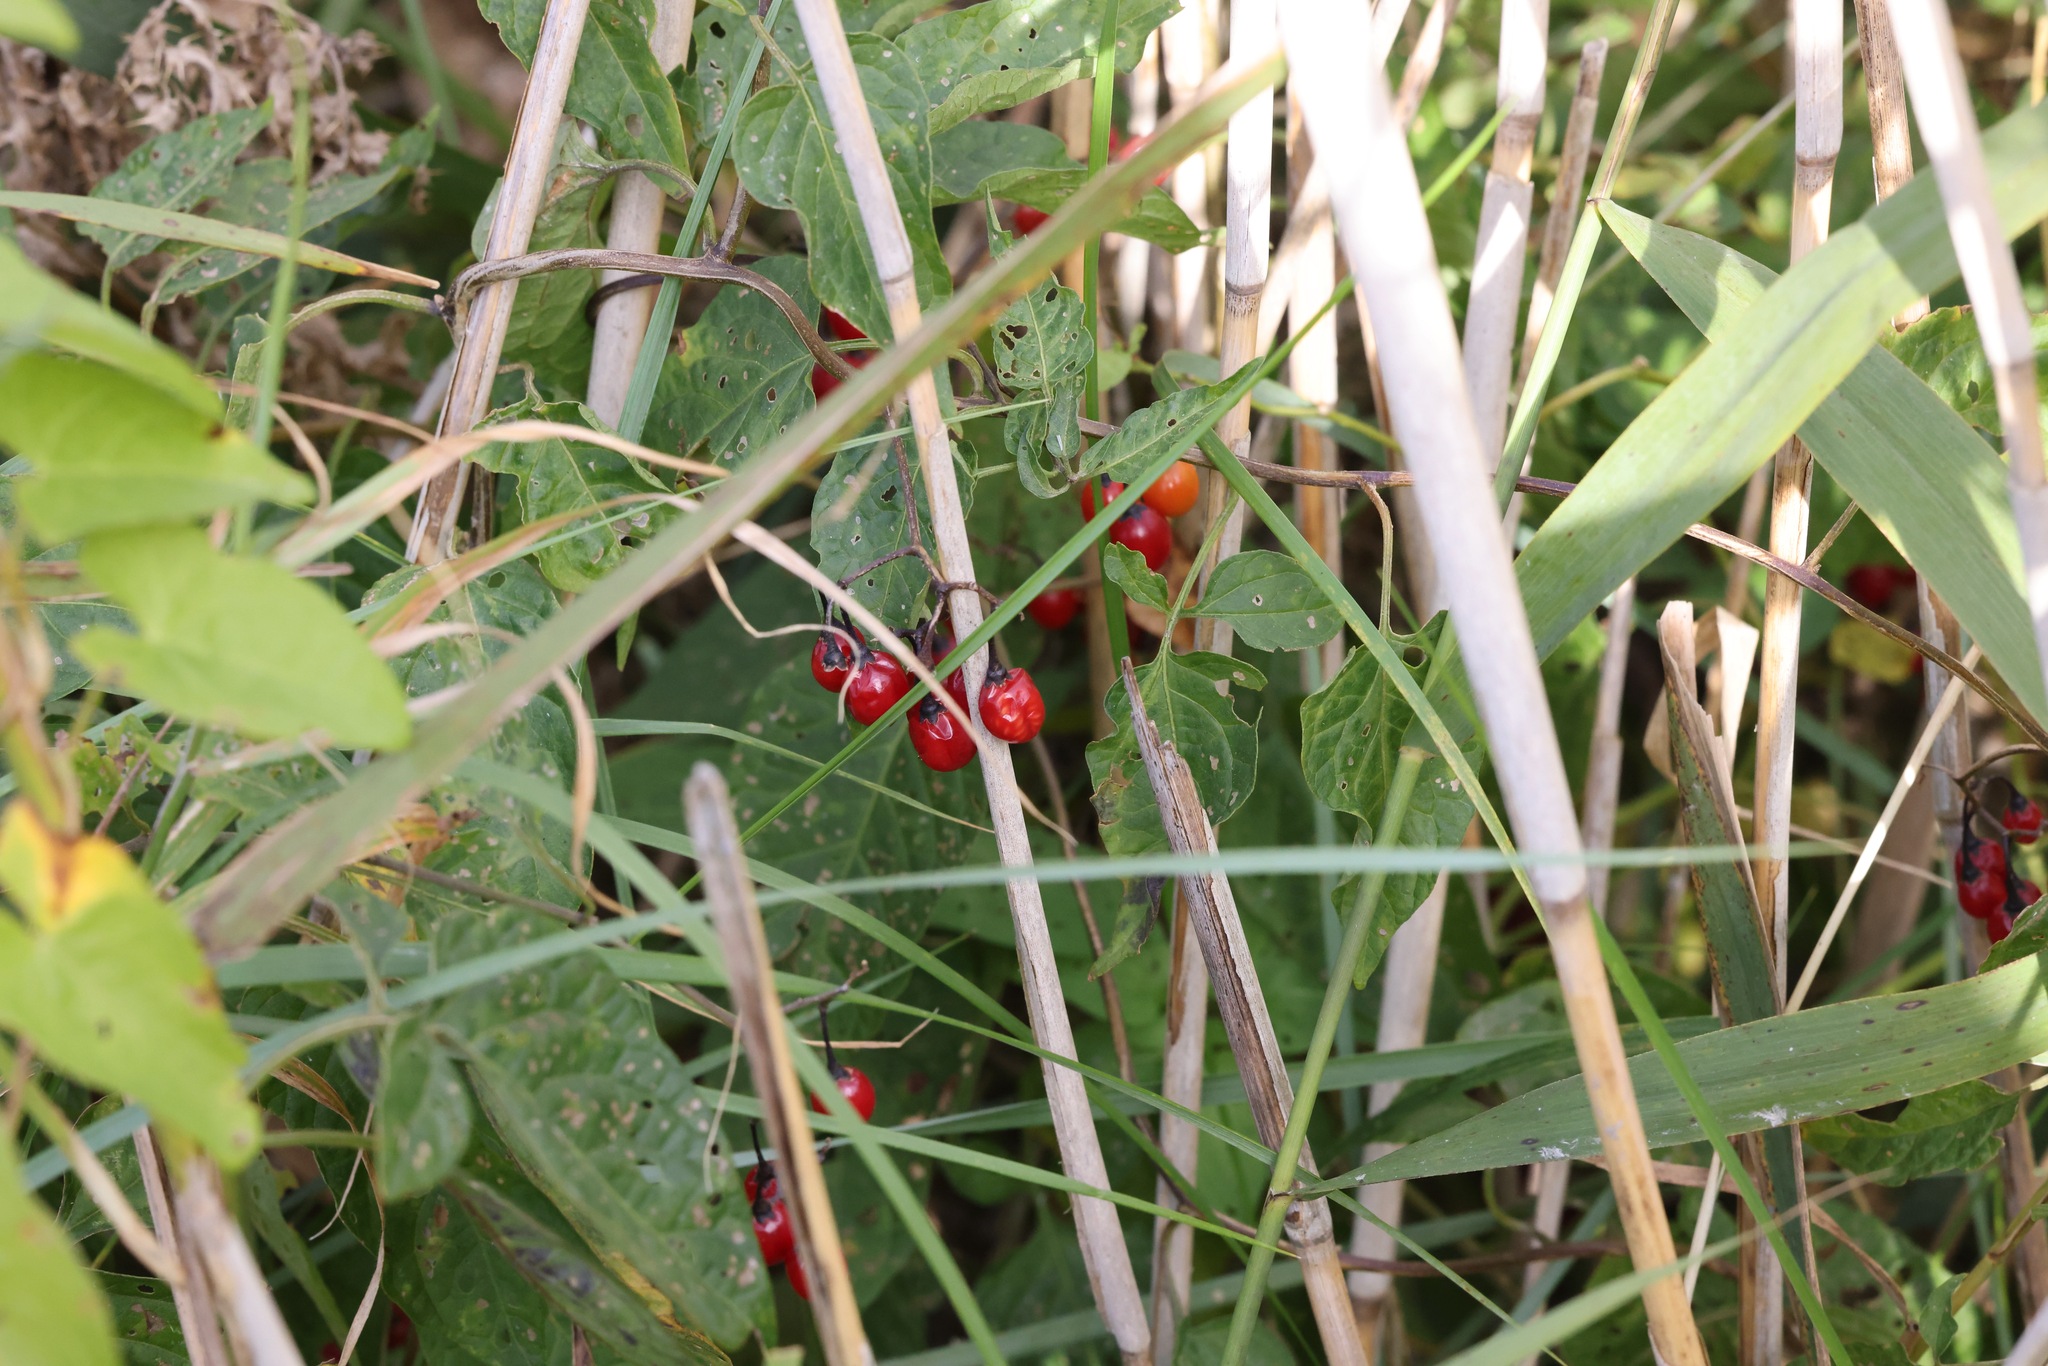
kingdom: Plantae
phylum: Tracheophyta
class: Magnoliopsida
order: Solanales
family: Solanaceae
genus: Solanum
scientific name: Solanum dulcamara
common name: Climbing nightshade
